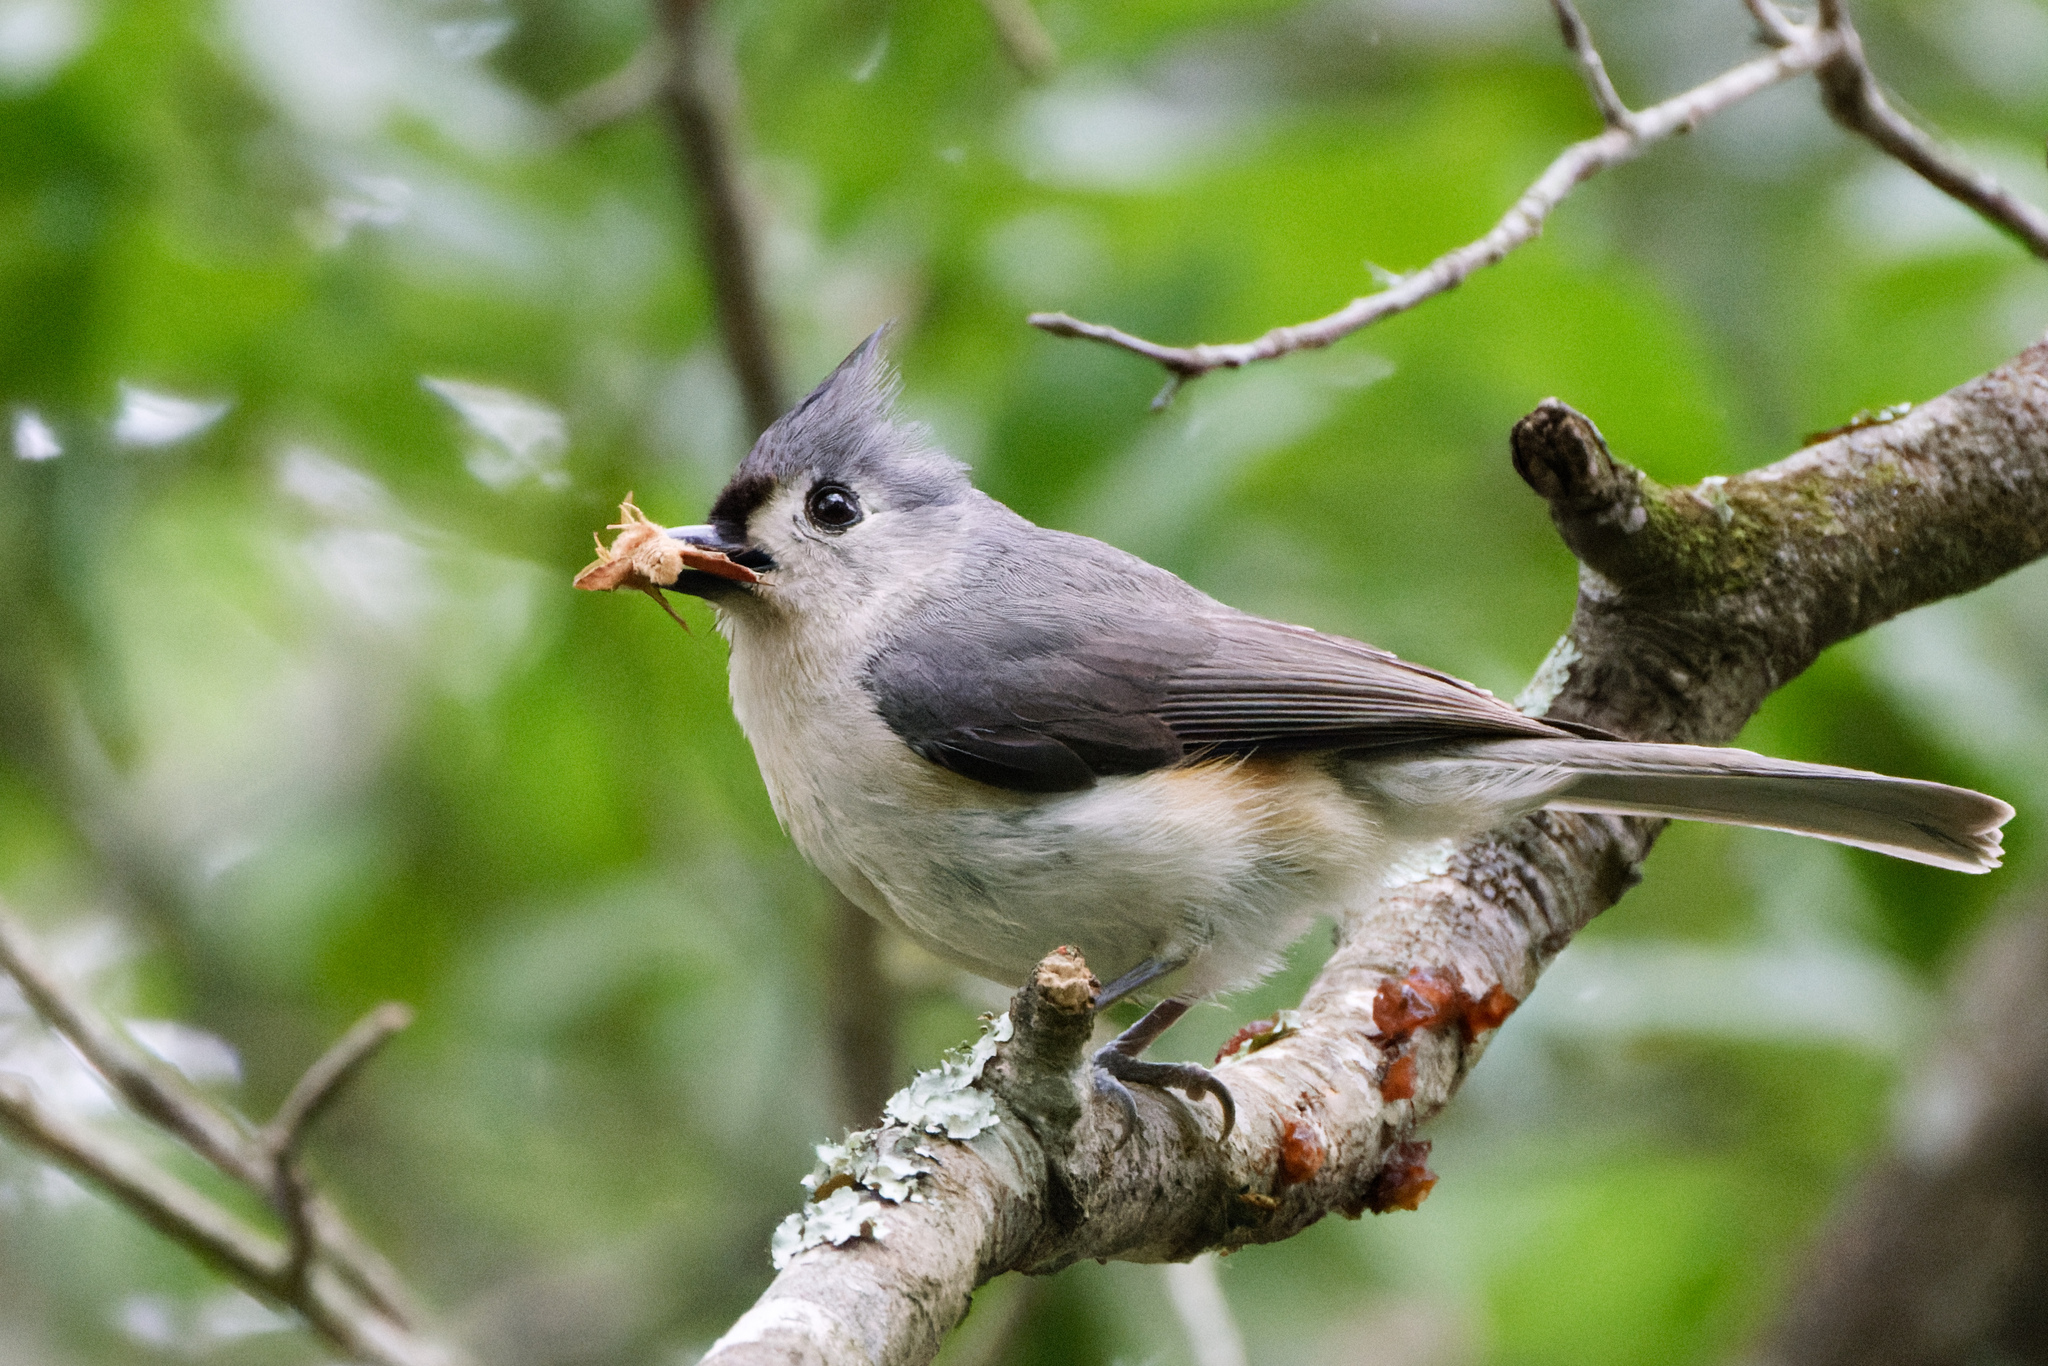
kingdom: Animalia
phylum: Chordata
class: Aves
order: Passeriformes
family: Paridae
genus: Baeolophus
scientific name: Baeolophus bicolor
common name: Tufted titmouse
